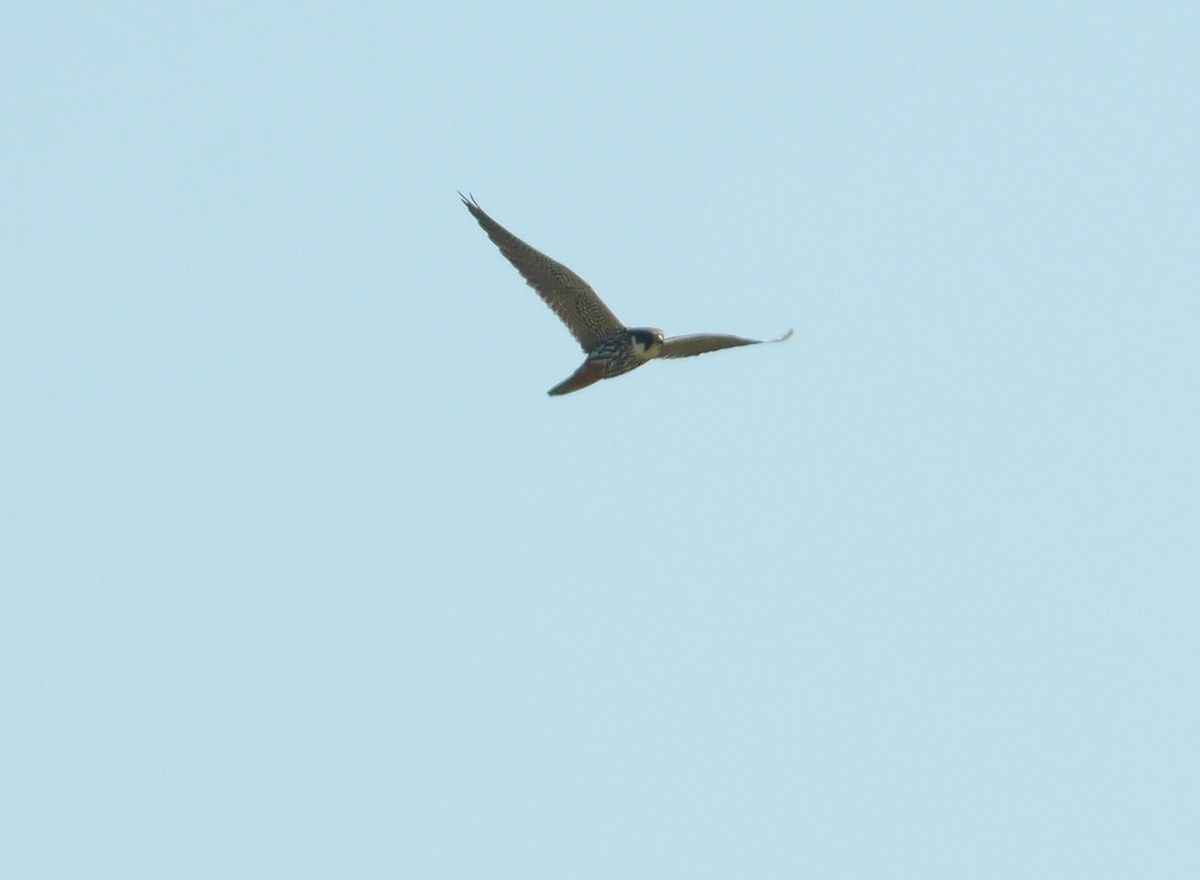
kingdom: Animalia
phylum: Chordata
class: Aves
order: Falconiformes
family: Falconidae
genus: Falco
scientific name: Falco subbuteo
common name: Eurasian hobby
